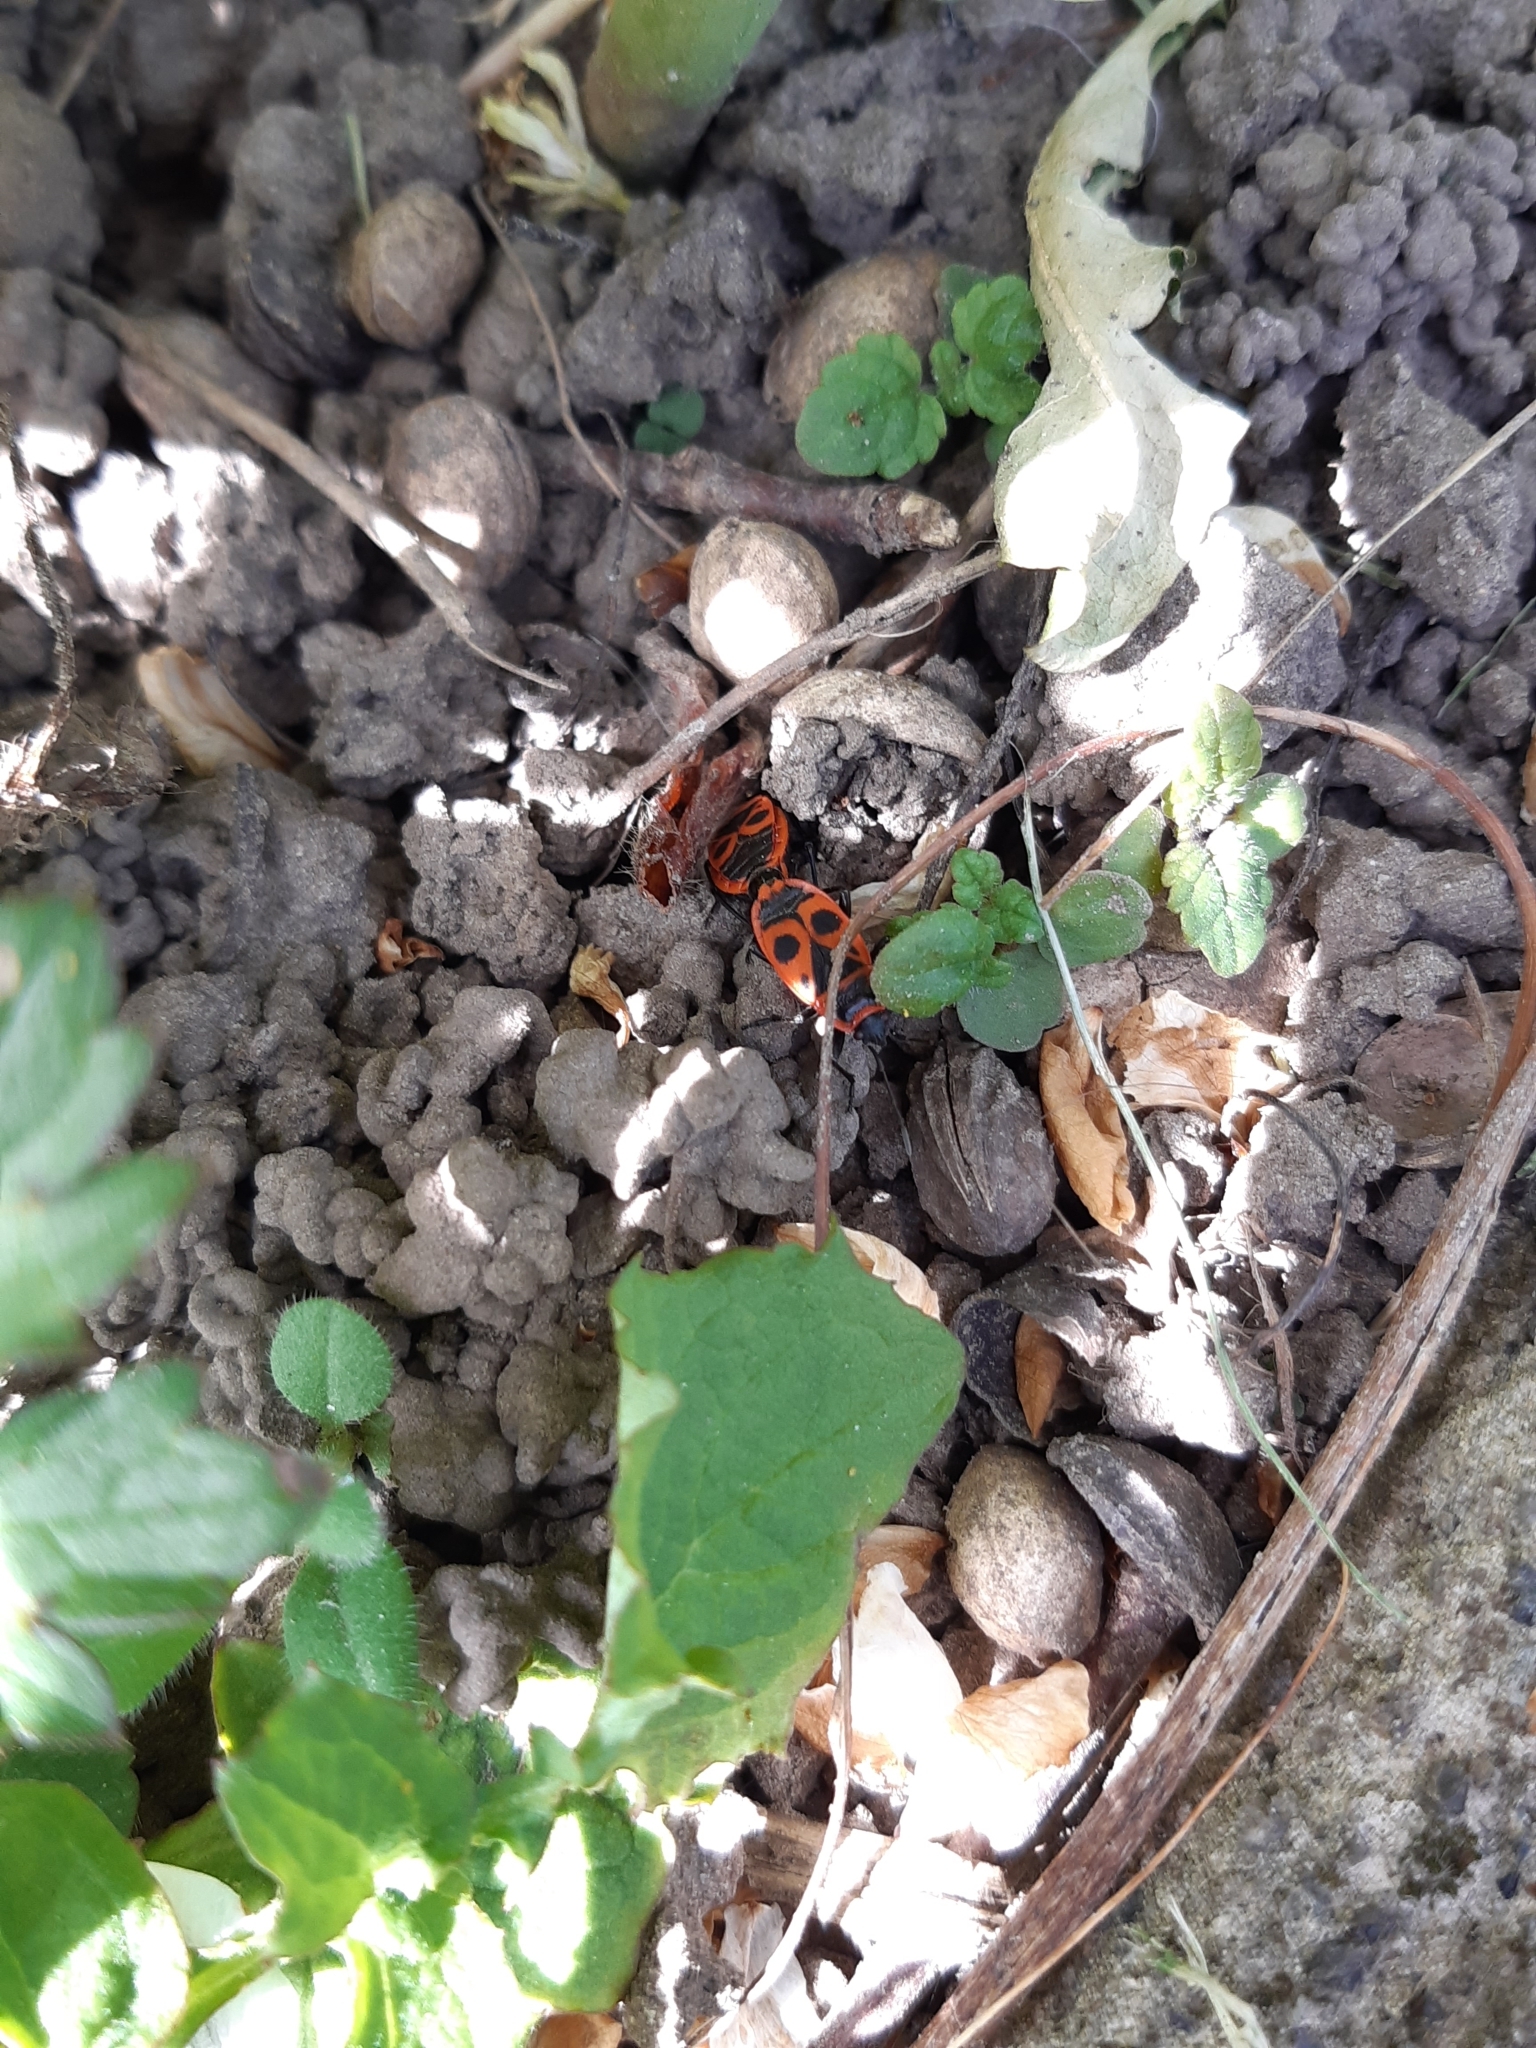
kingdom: Animalia
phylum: Arthropoda
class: Insecta
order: Hemiptera
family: Pyrrhocoridae
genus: Pyrrhocoris
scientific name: Pyrrhocoris apterus
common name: Firebug
